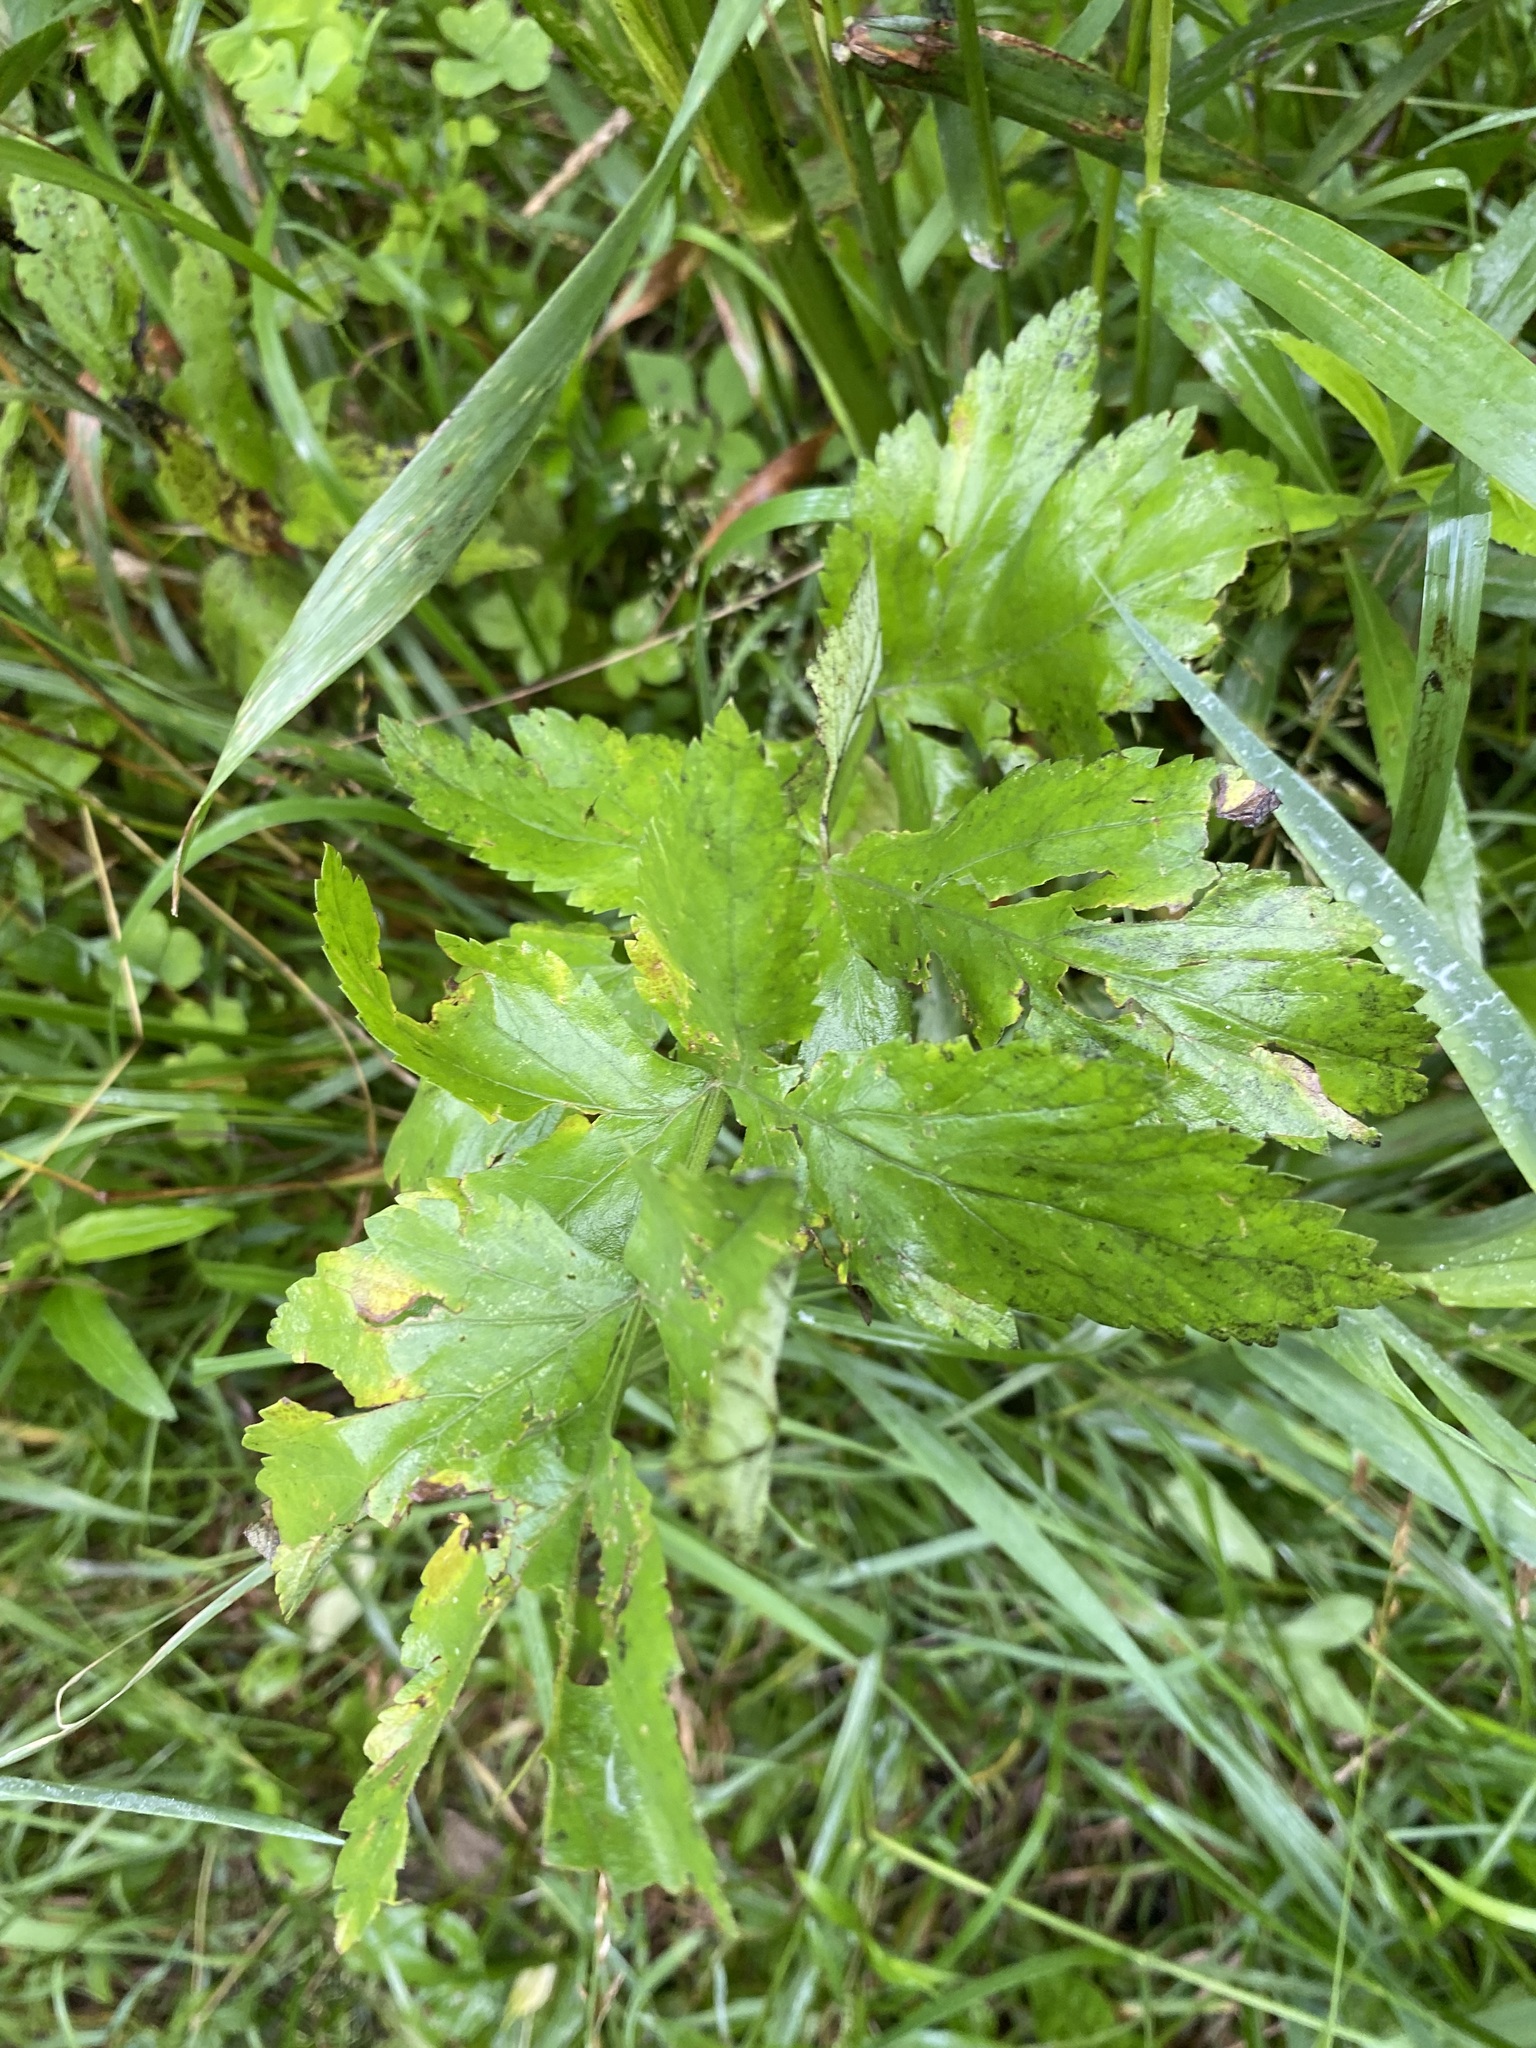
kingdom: Plantae
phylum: Tracheophyta
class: Magnoliopsida
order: Apiales
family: Apiaceae
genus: Pastinaca
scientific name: Pastinaca sativa
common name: Wild parsnip
